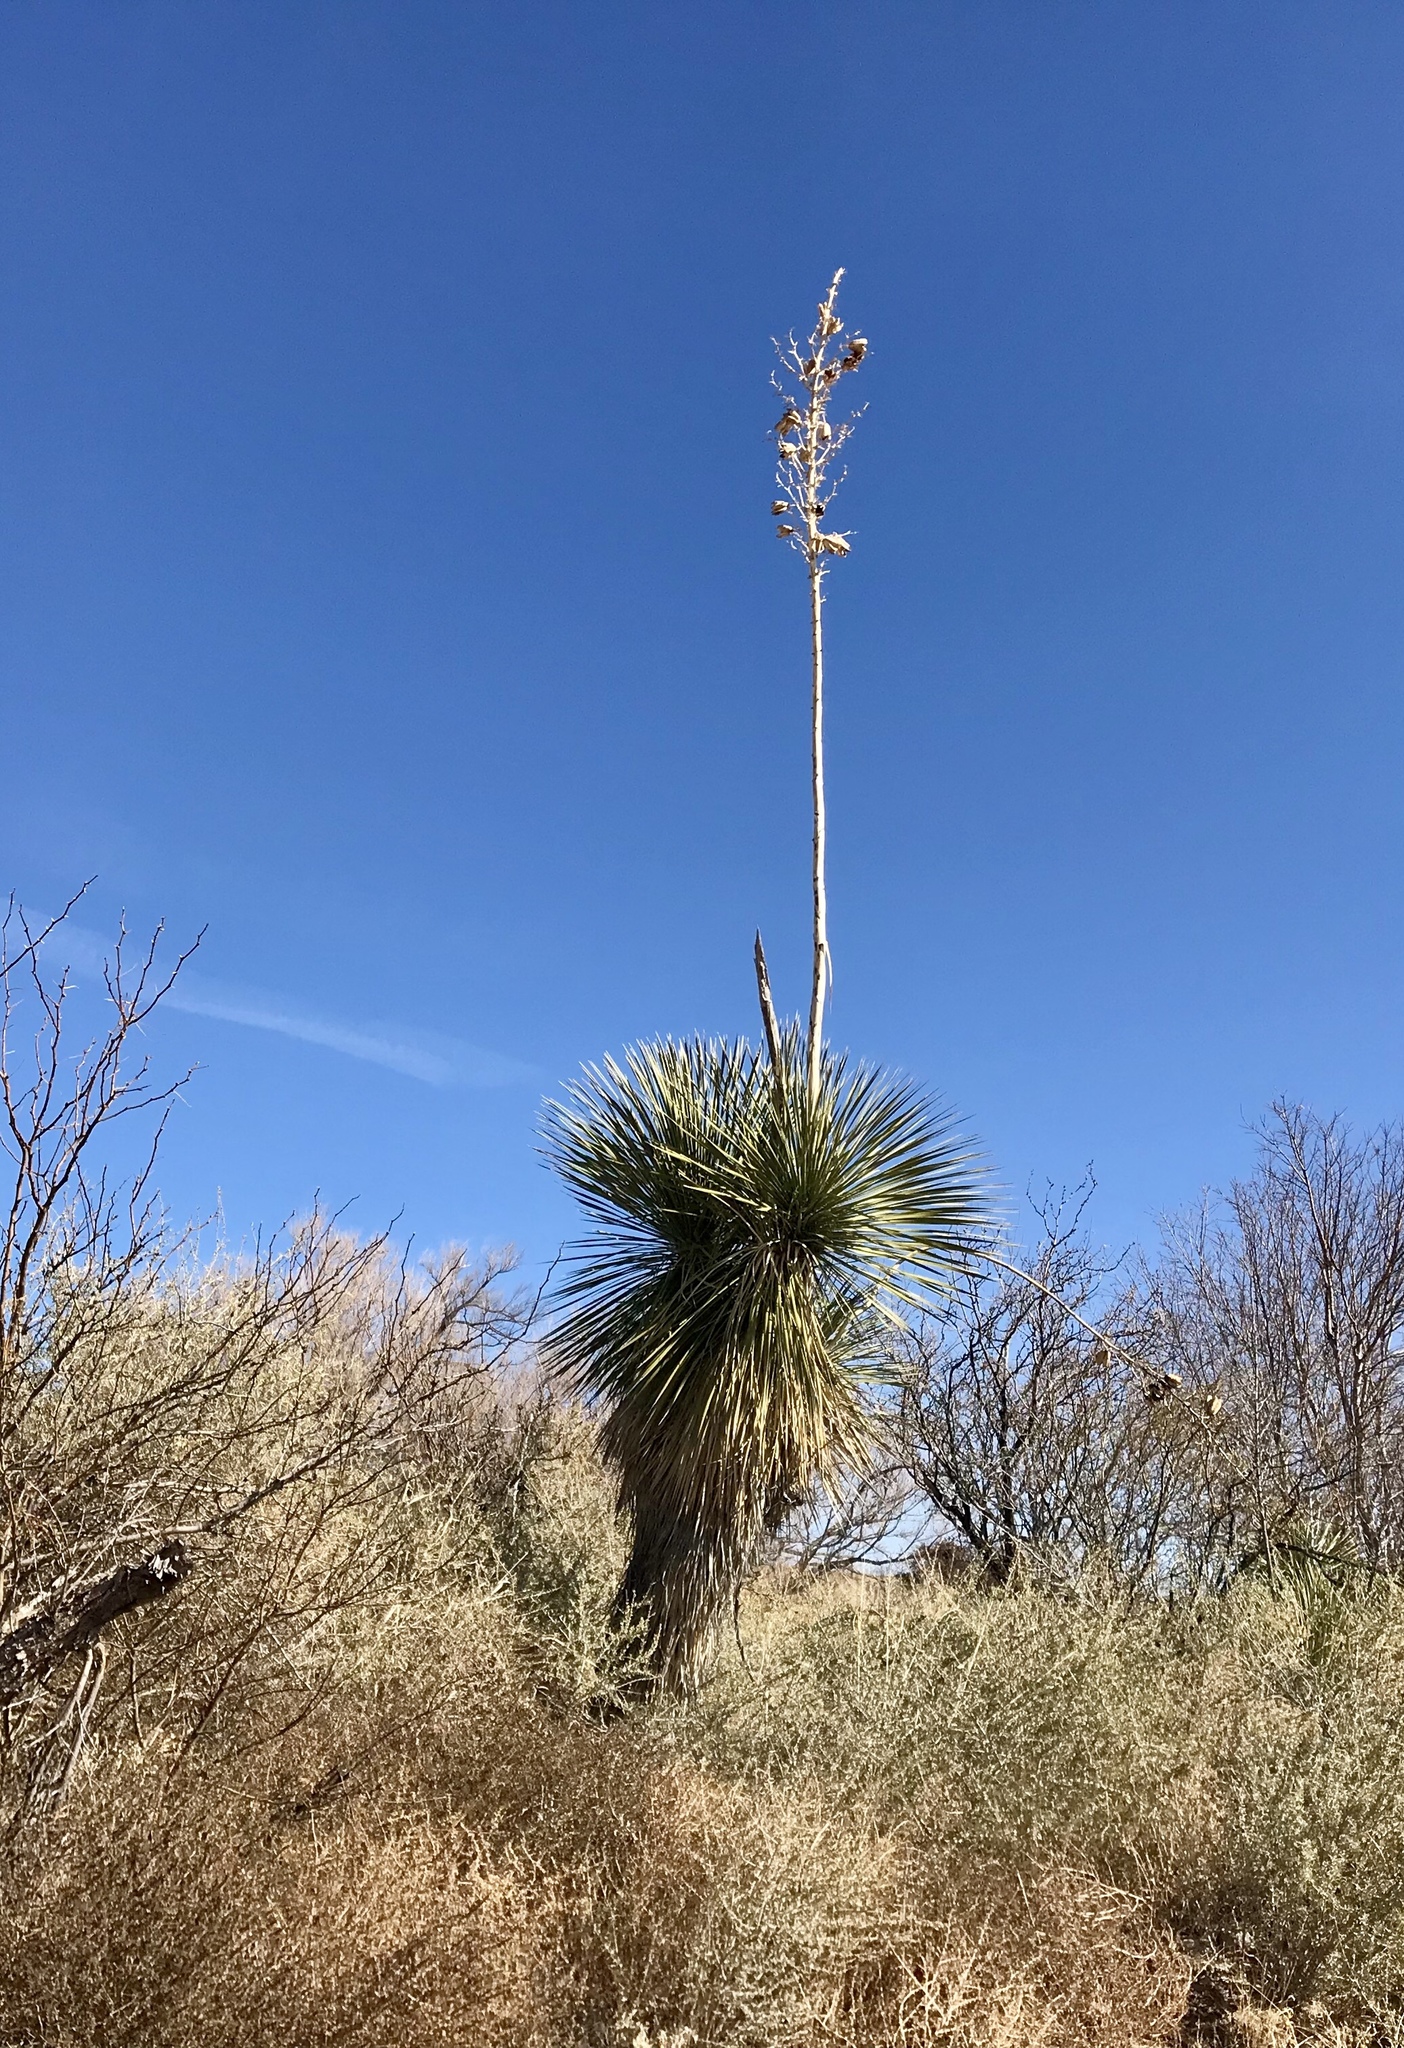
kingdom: Plantae
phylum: Tracheophyta
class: Liliopsida
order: Asparagales
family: Asparagaceae
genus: Yucca
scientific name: Yucca elata
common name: Palmella
